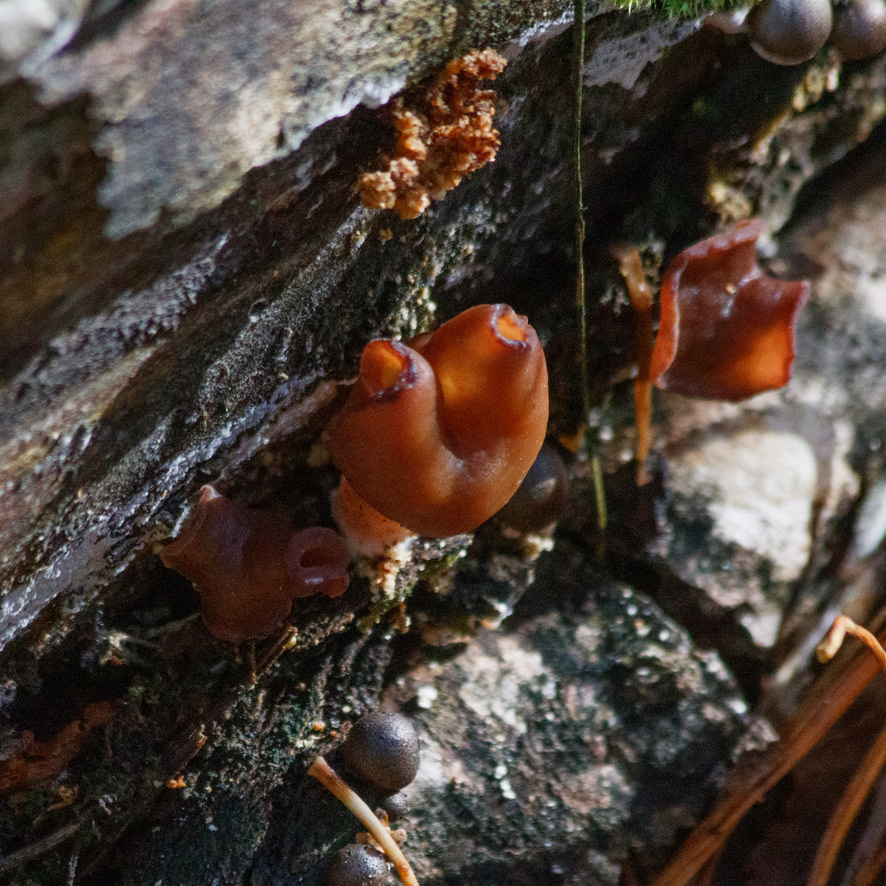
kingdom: Fungi
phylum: Ascomycota
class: Pezizomycetes
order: Pezizales
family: Discinaceae
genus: Gyromitra
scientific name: Gyromitra infula
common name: Pouched false morel
